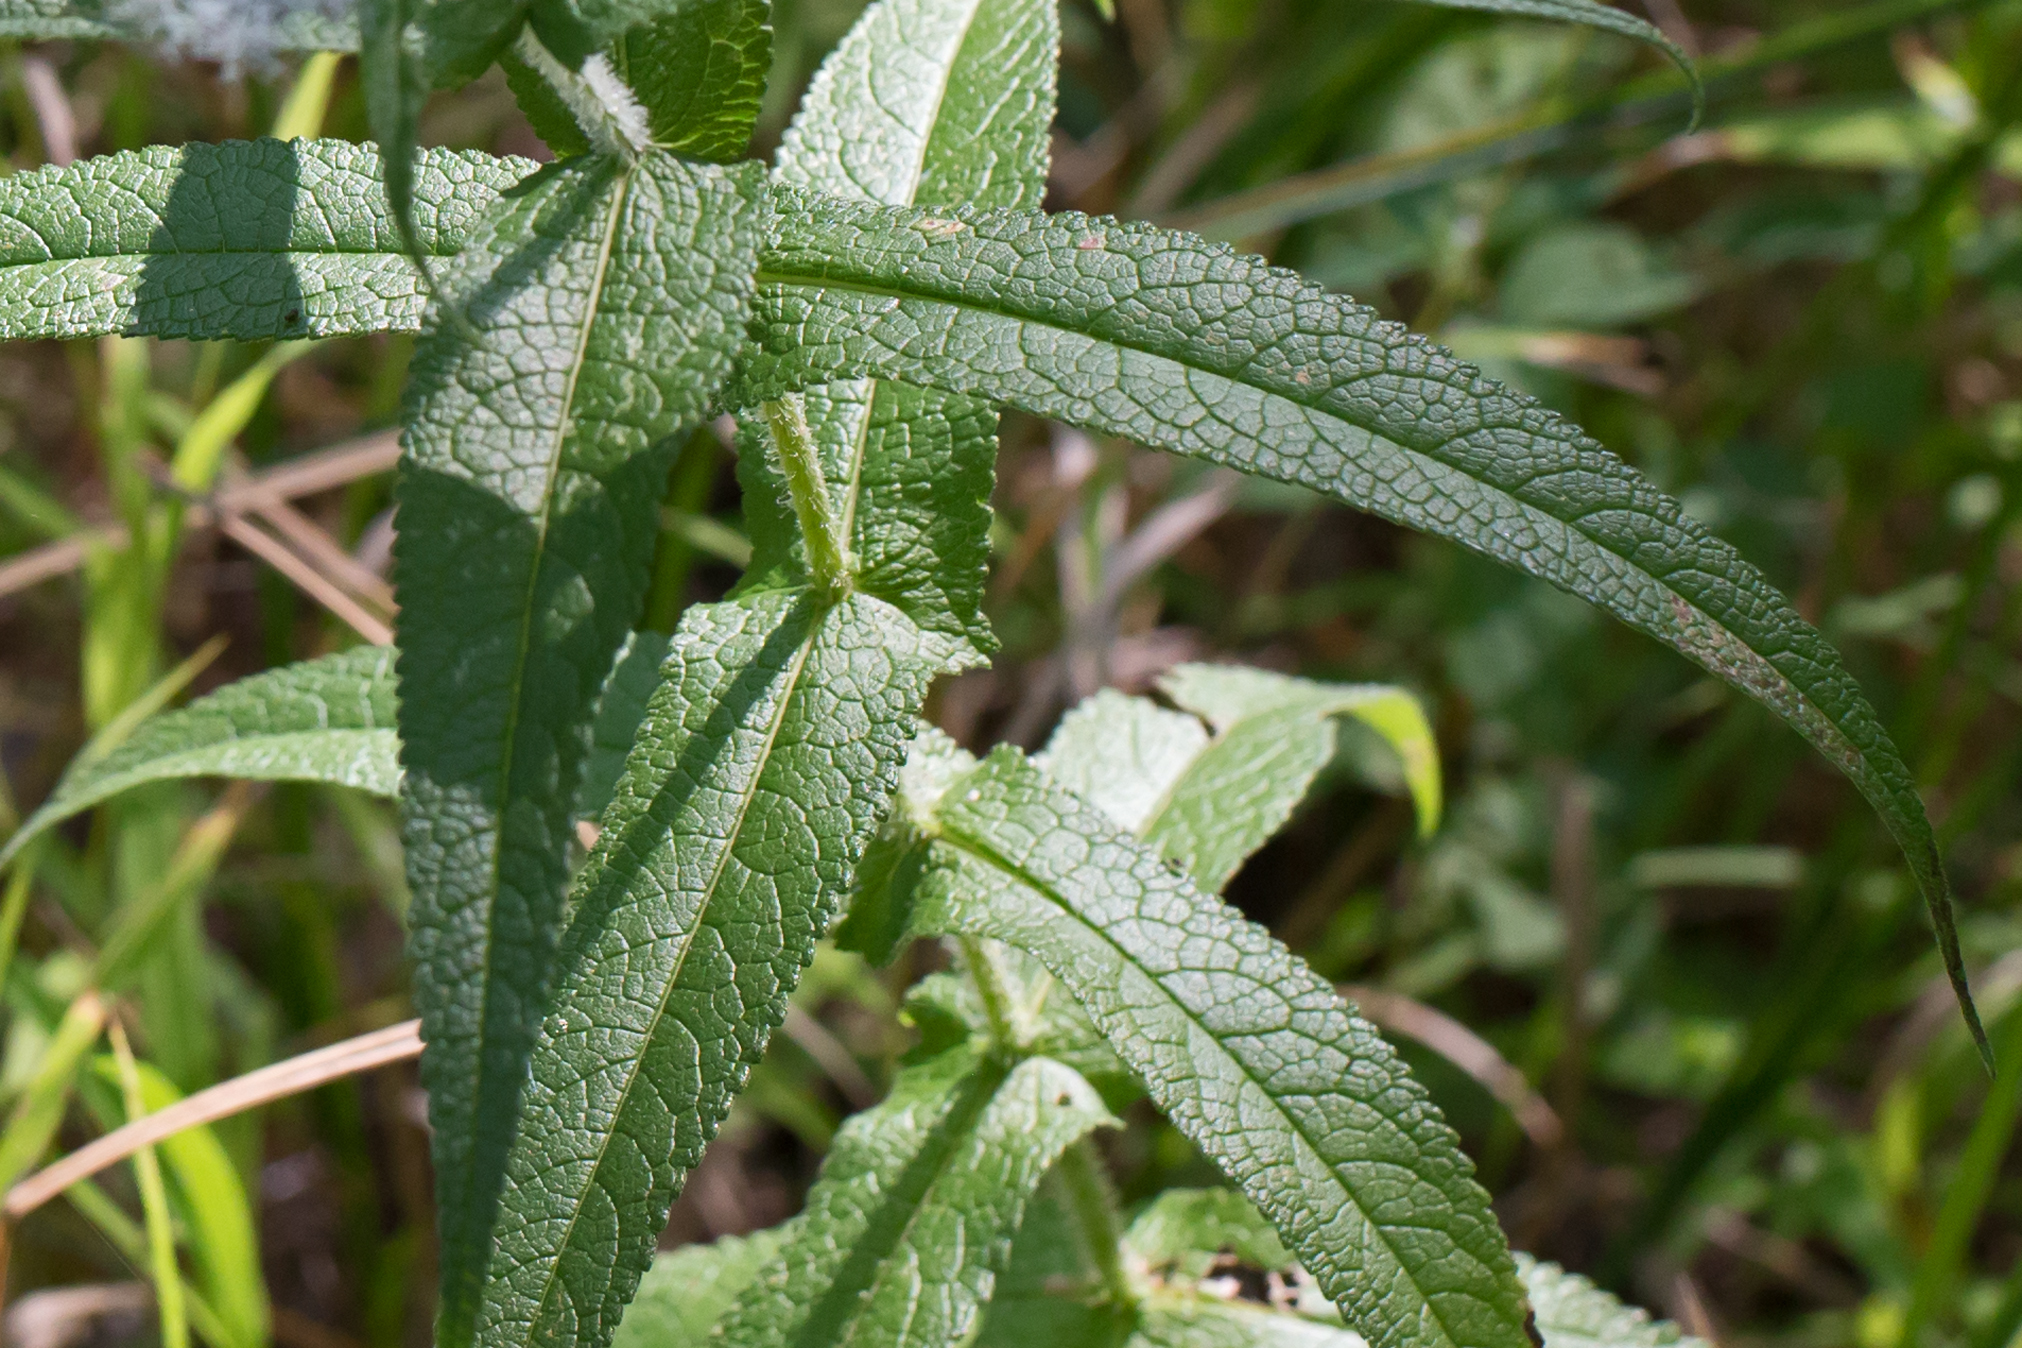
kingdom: Plantae
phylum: Tracheophyta
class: Magnoliopsida
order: Asterales
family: Asteraceae
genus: Eupatorium
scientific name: Eupatorium perfoliatum
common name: Boneset
